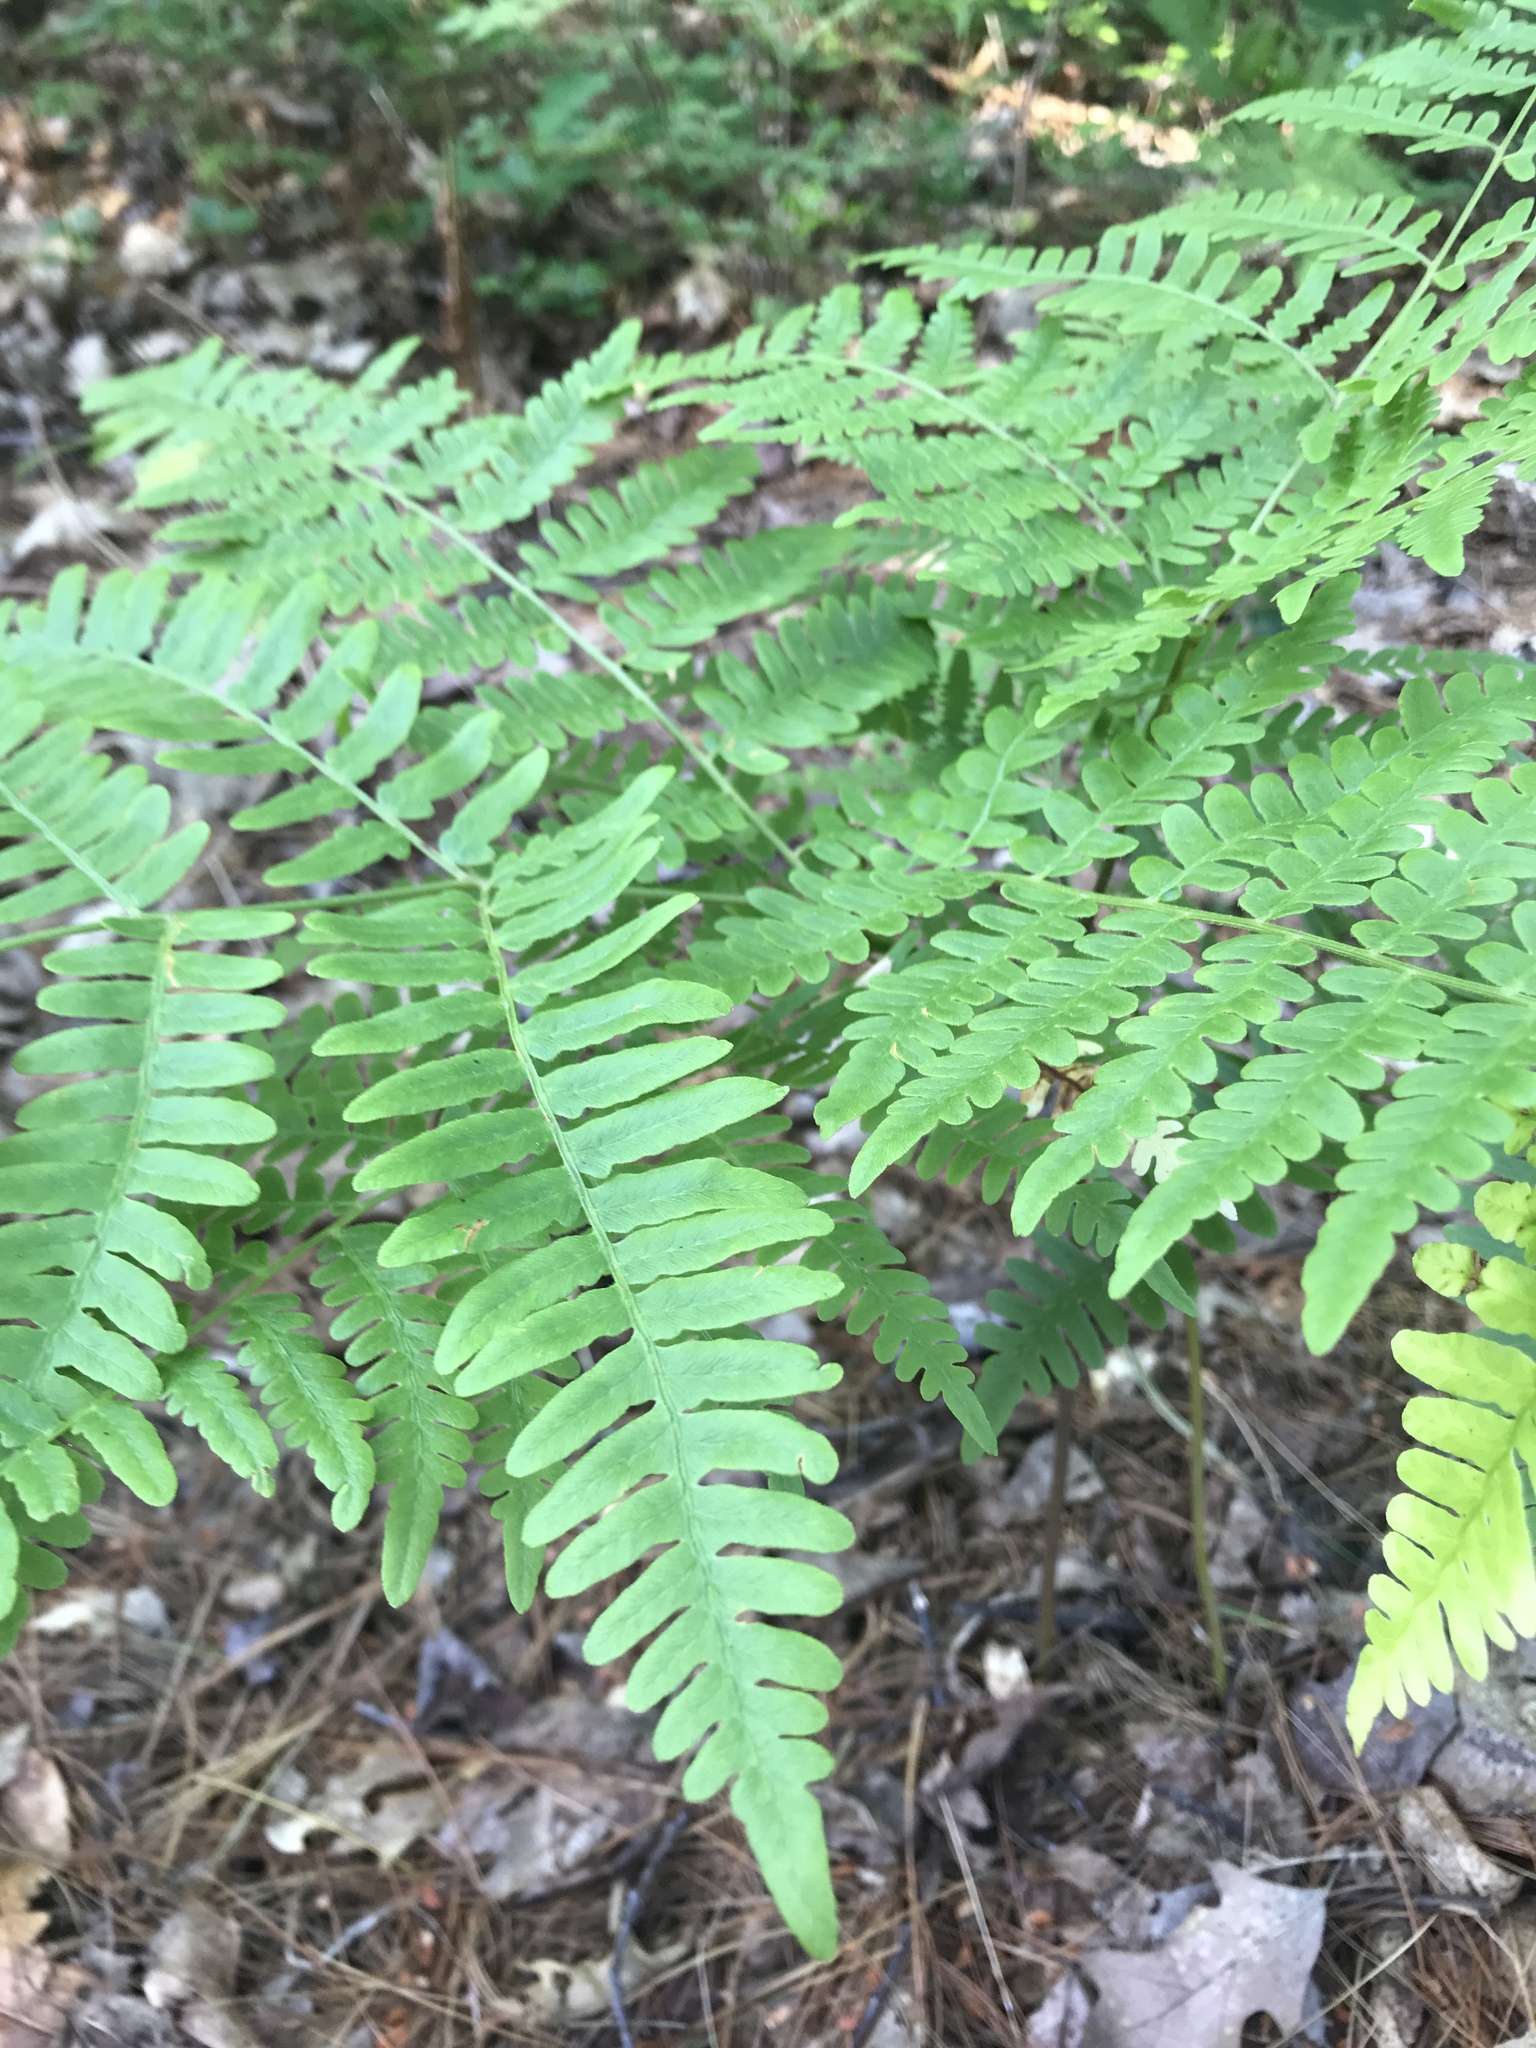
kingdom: Plantae
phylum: Tracheophyta
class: Polypodiopsida
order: Polypodiales
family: Dennstaedtiaceae
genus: Pteridium
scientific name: Pteridium aquilinum
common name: Bracken
